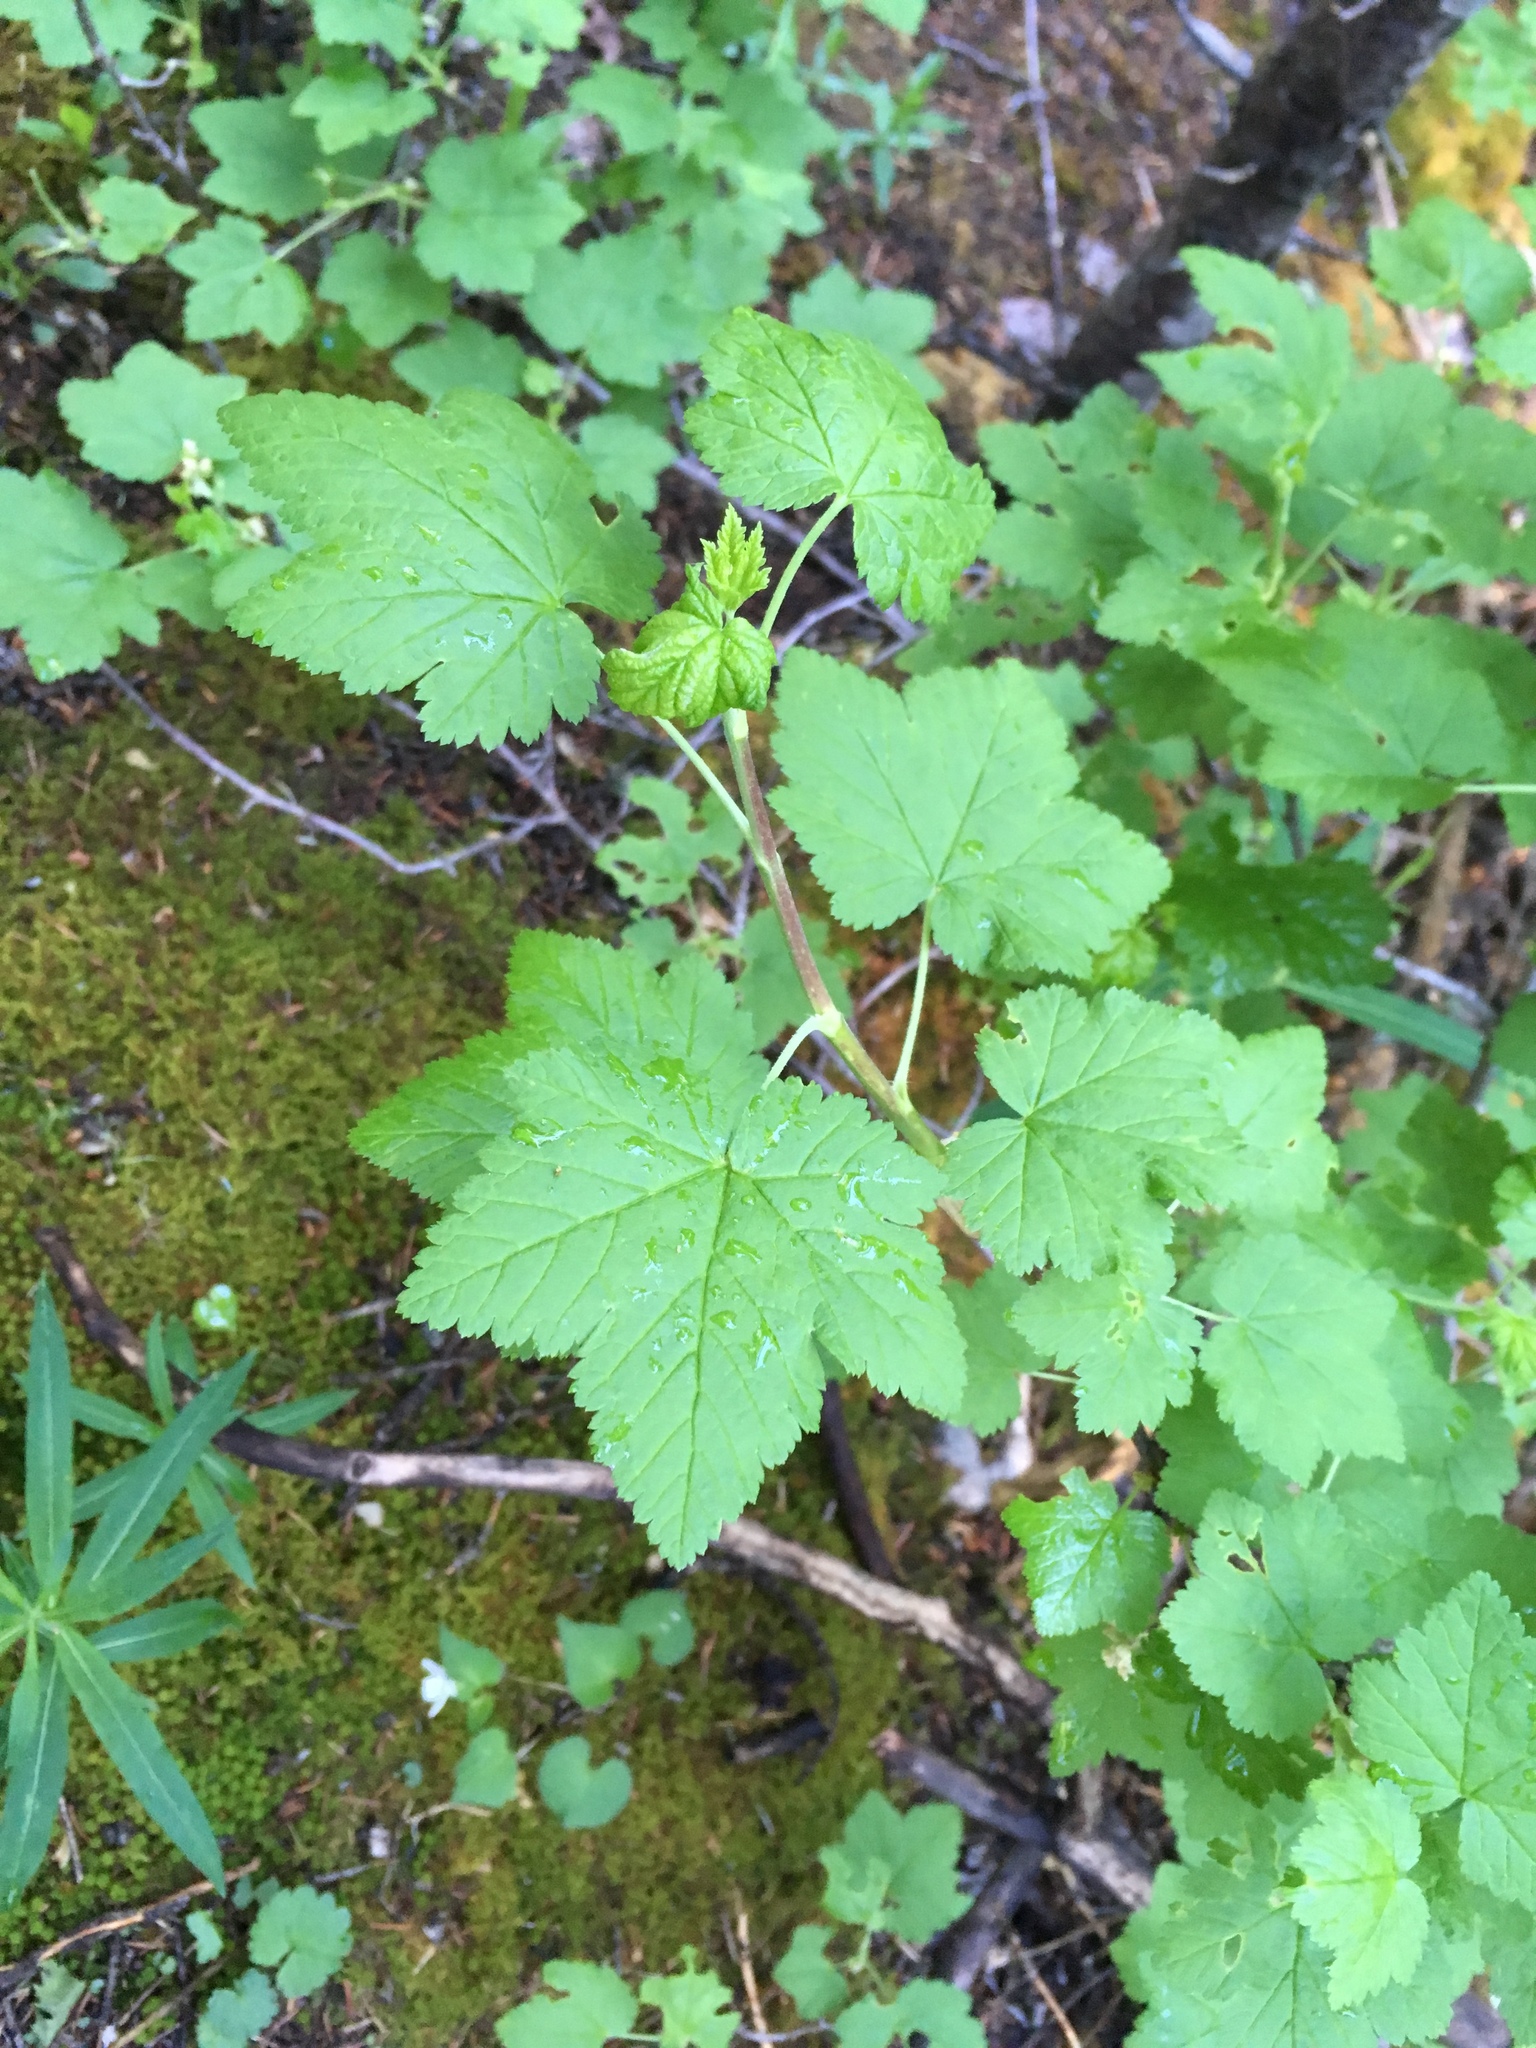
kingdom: Plantae
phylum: Tracheophyta
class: Magnoliopsida
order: Saxifragales
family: Grossulariaceae
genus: Ribes
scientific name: Ribes wolfii
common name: Rothrock currant
